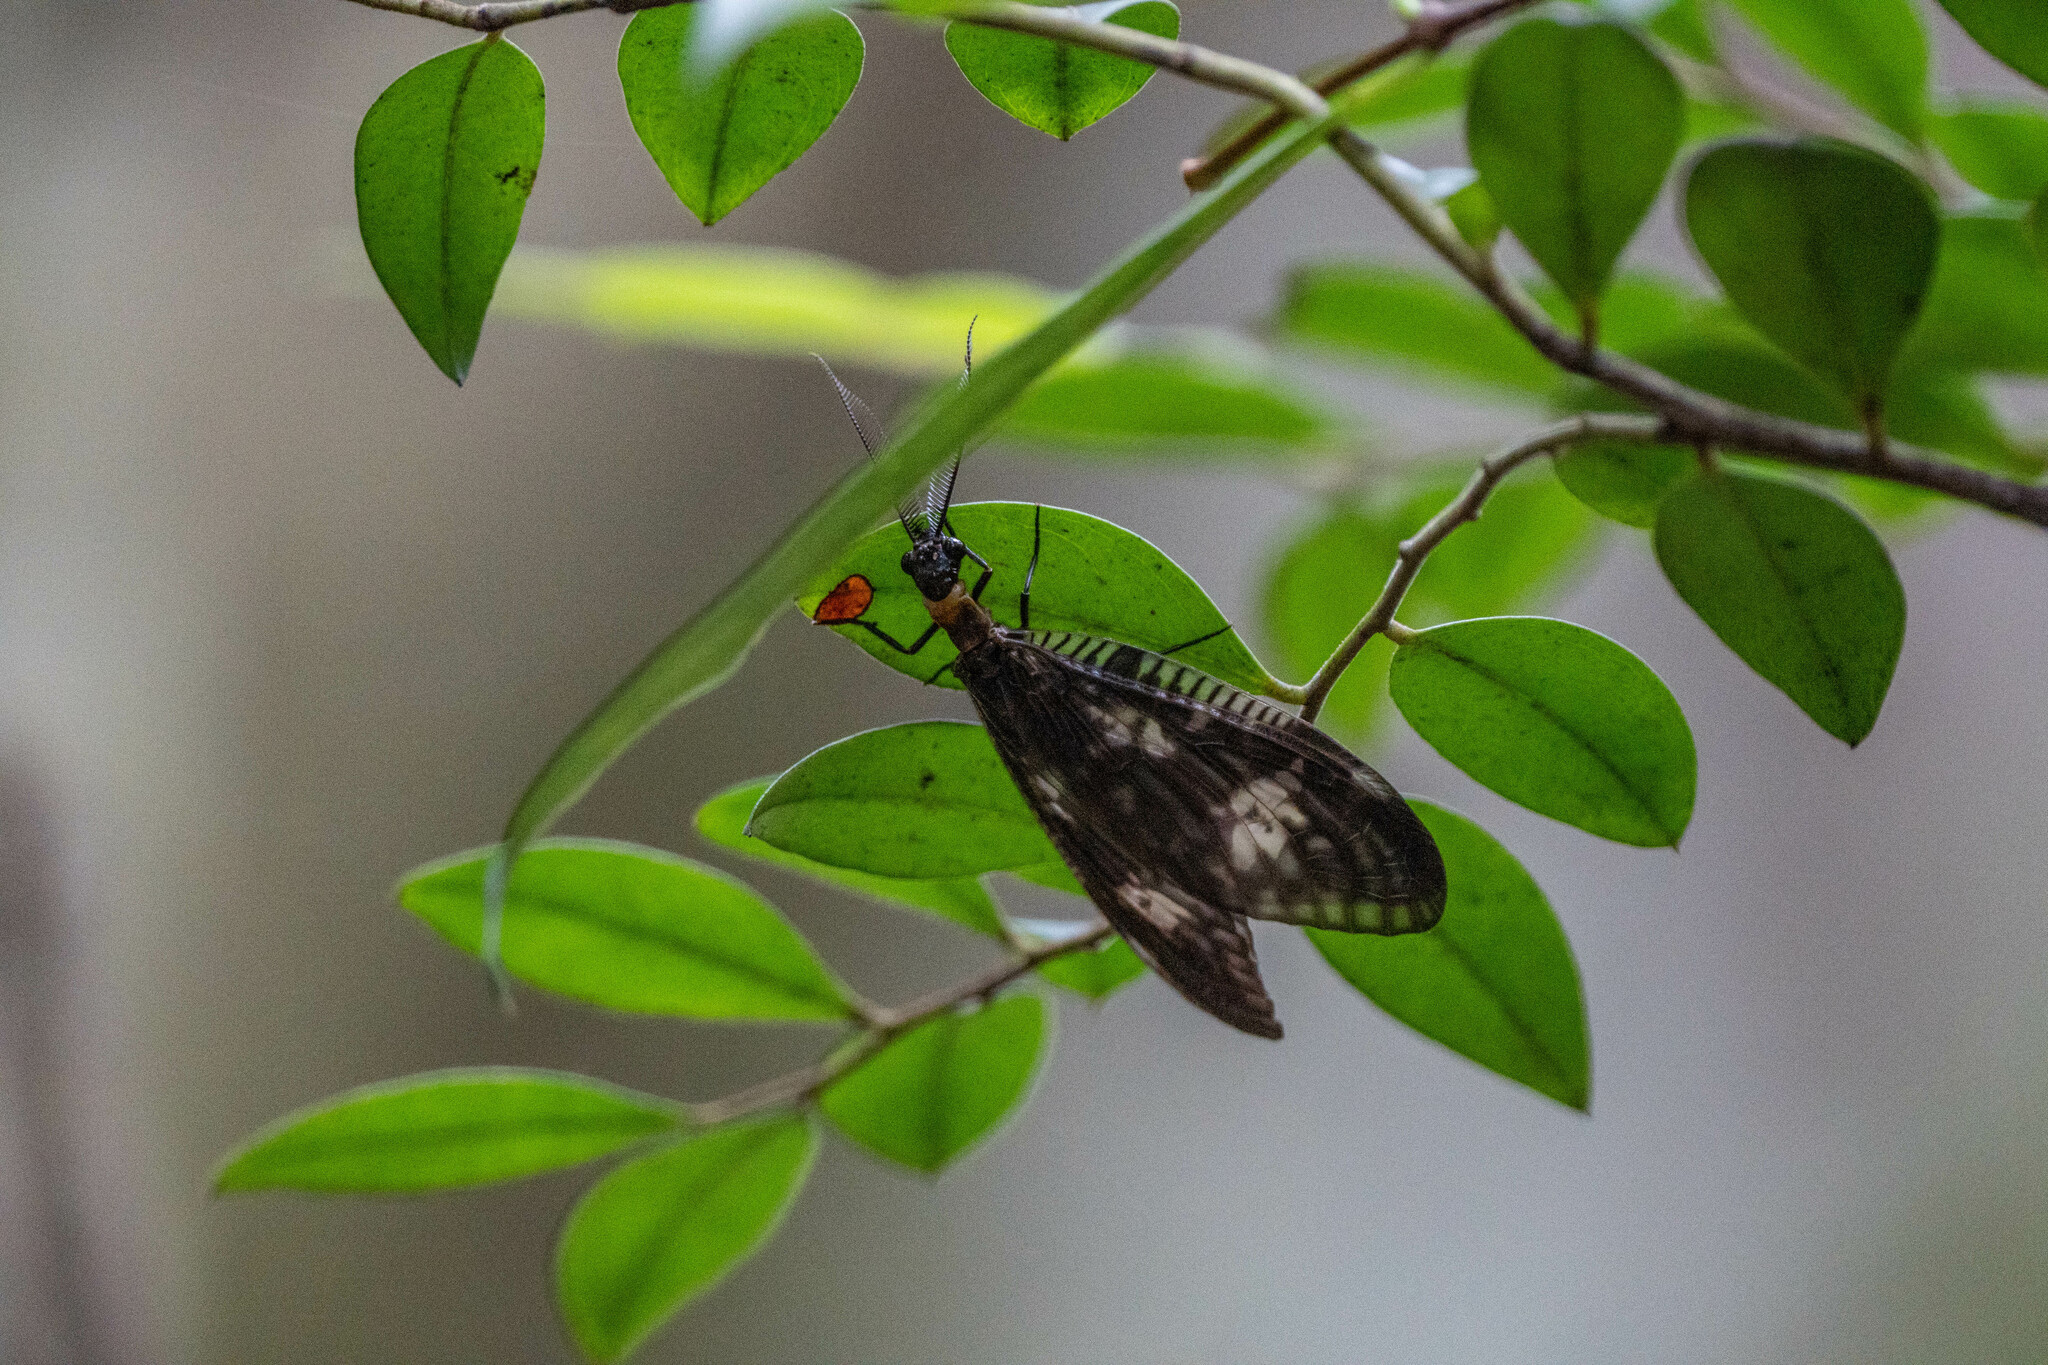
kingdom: Animalia
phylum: Arthropoda
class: Insecta
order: Megaloptera
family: Corydalidae
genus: Neochauliodes
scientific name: Neochauliodes koreanus
